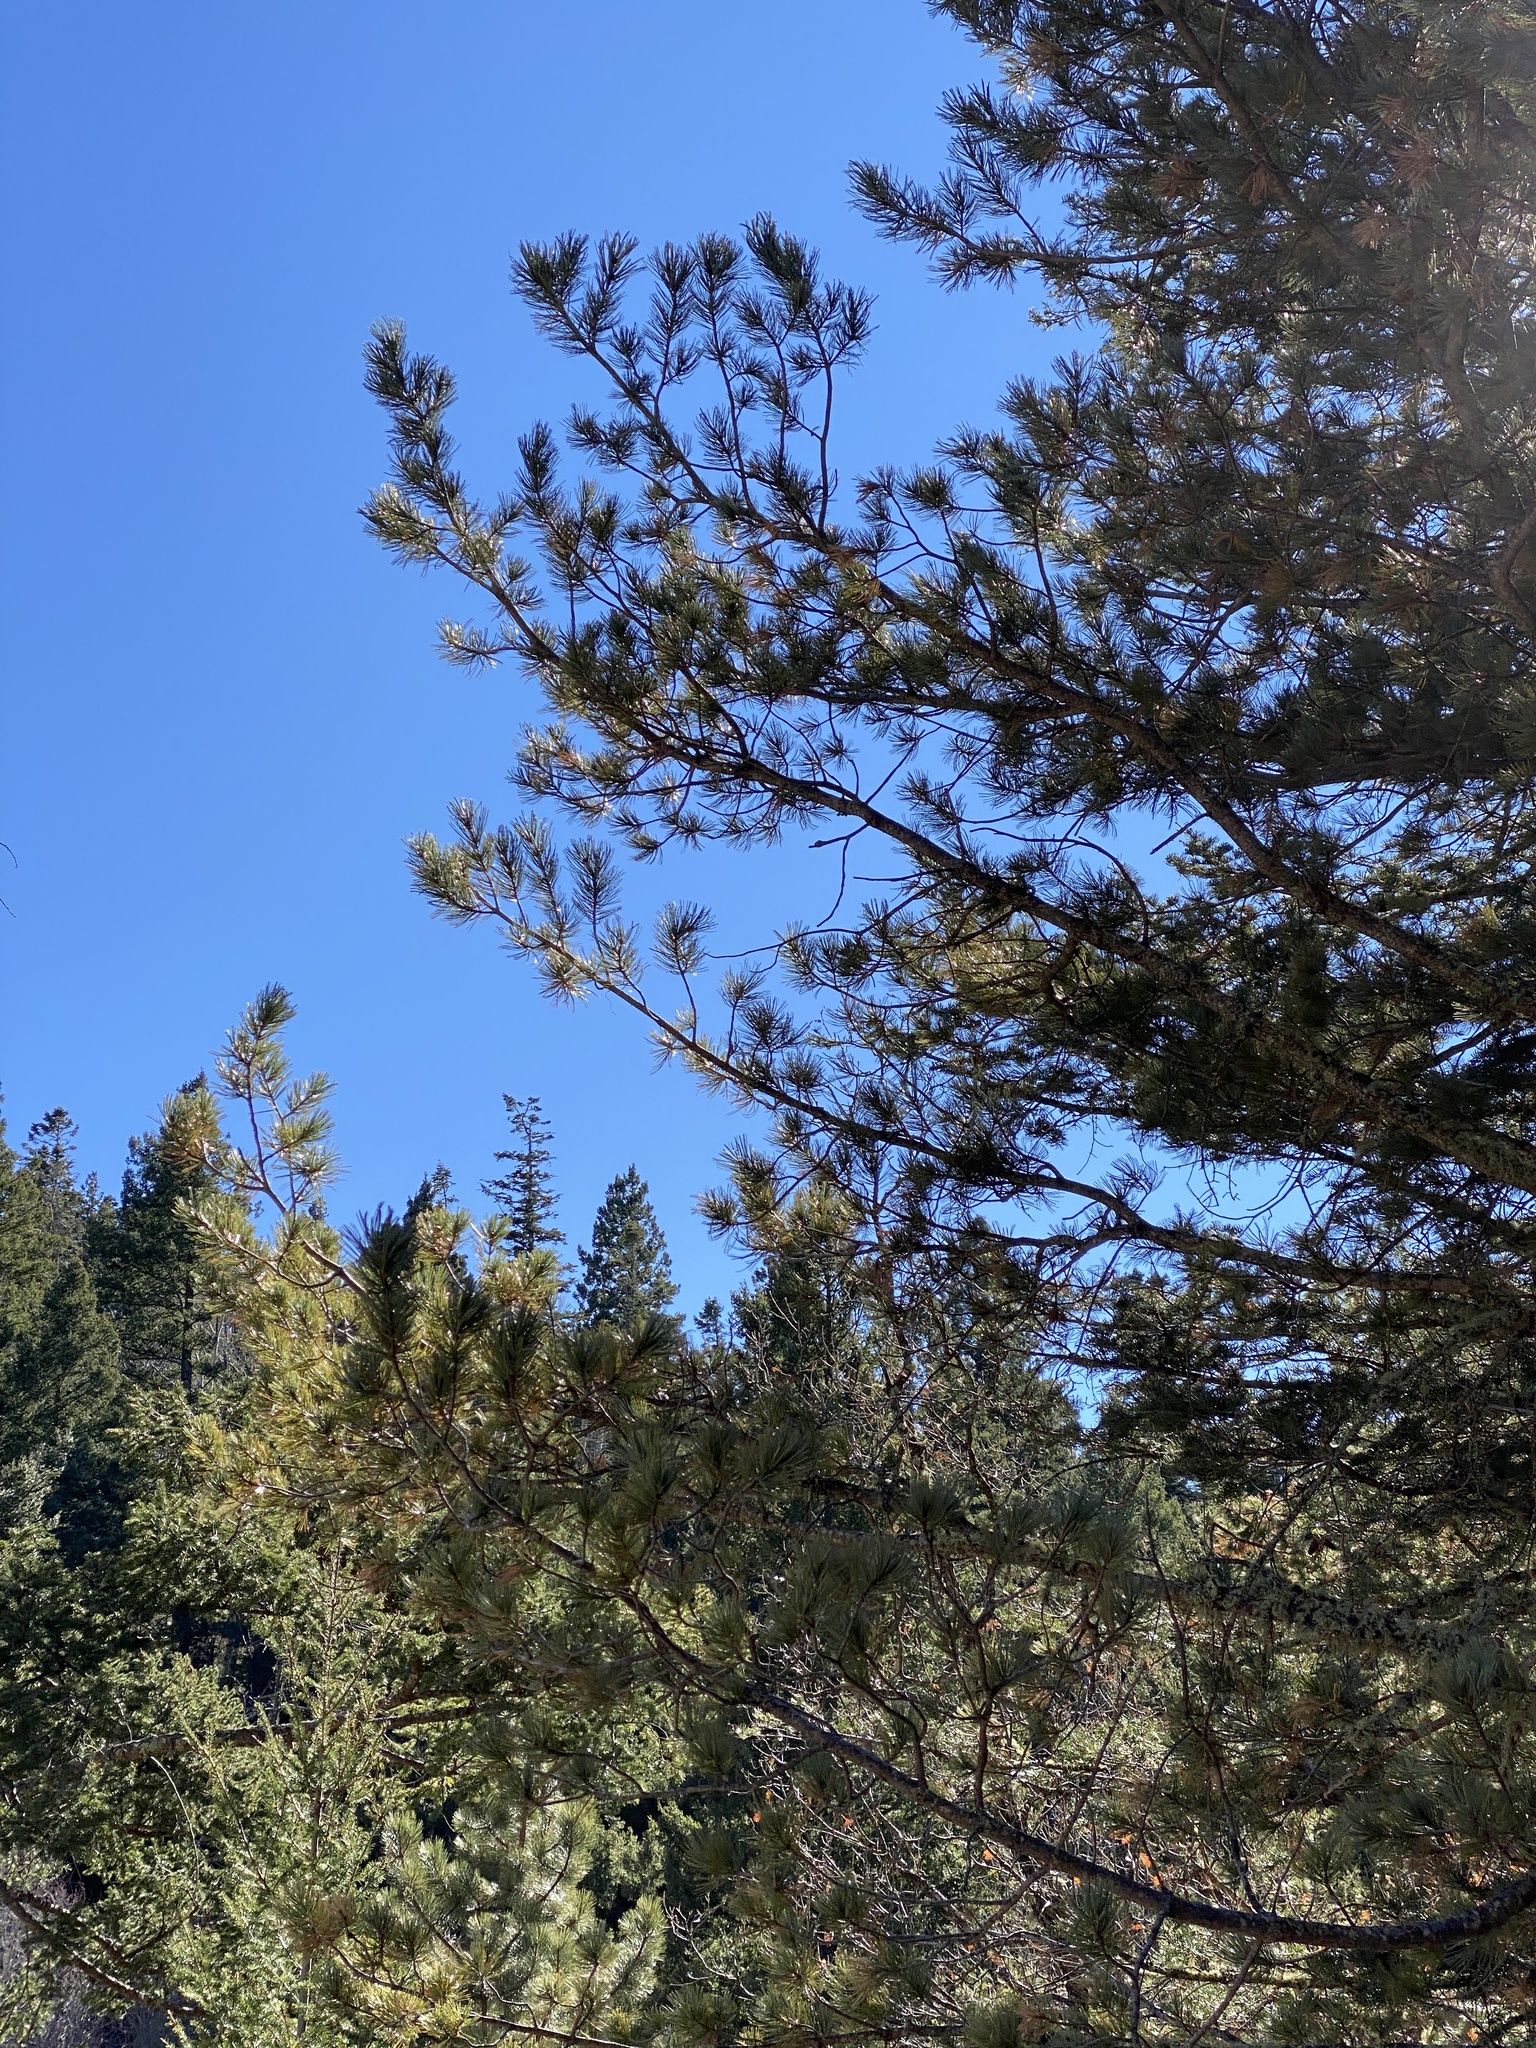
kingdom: Plantae
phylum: Tracheophyta
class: Pinopsida
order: Pinales
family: Pinaceae
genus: Pinus
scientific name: Pinus strobiformis
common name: Southwestern white pine
